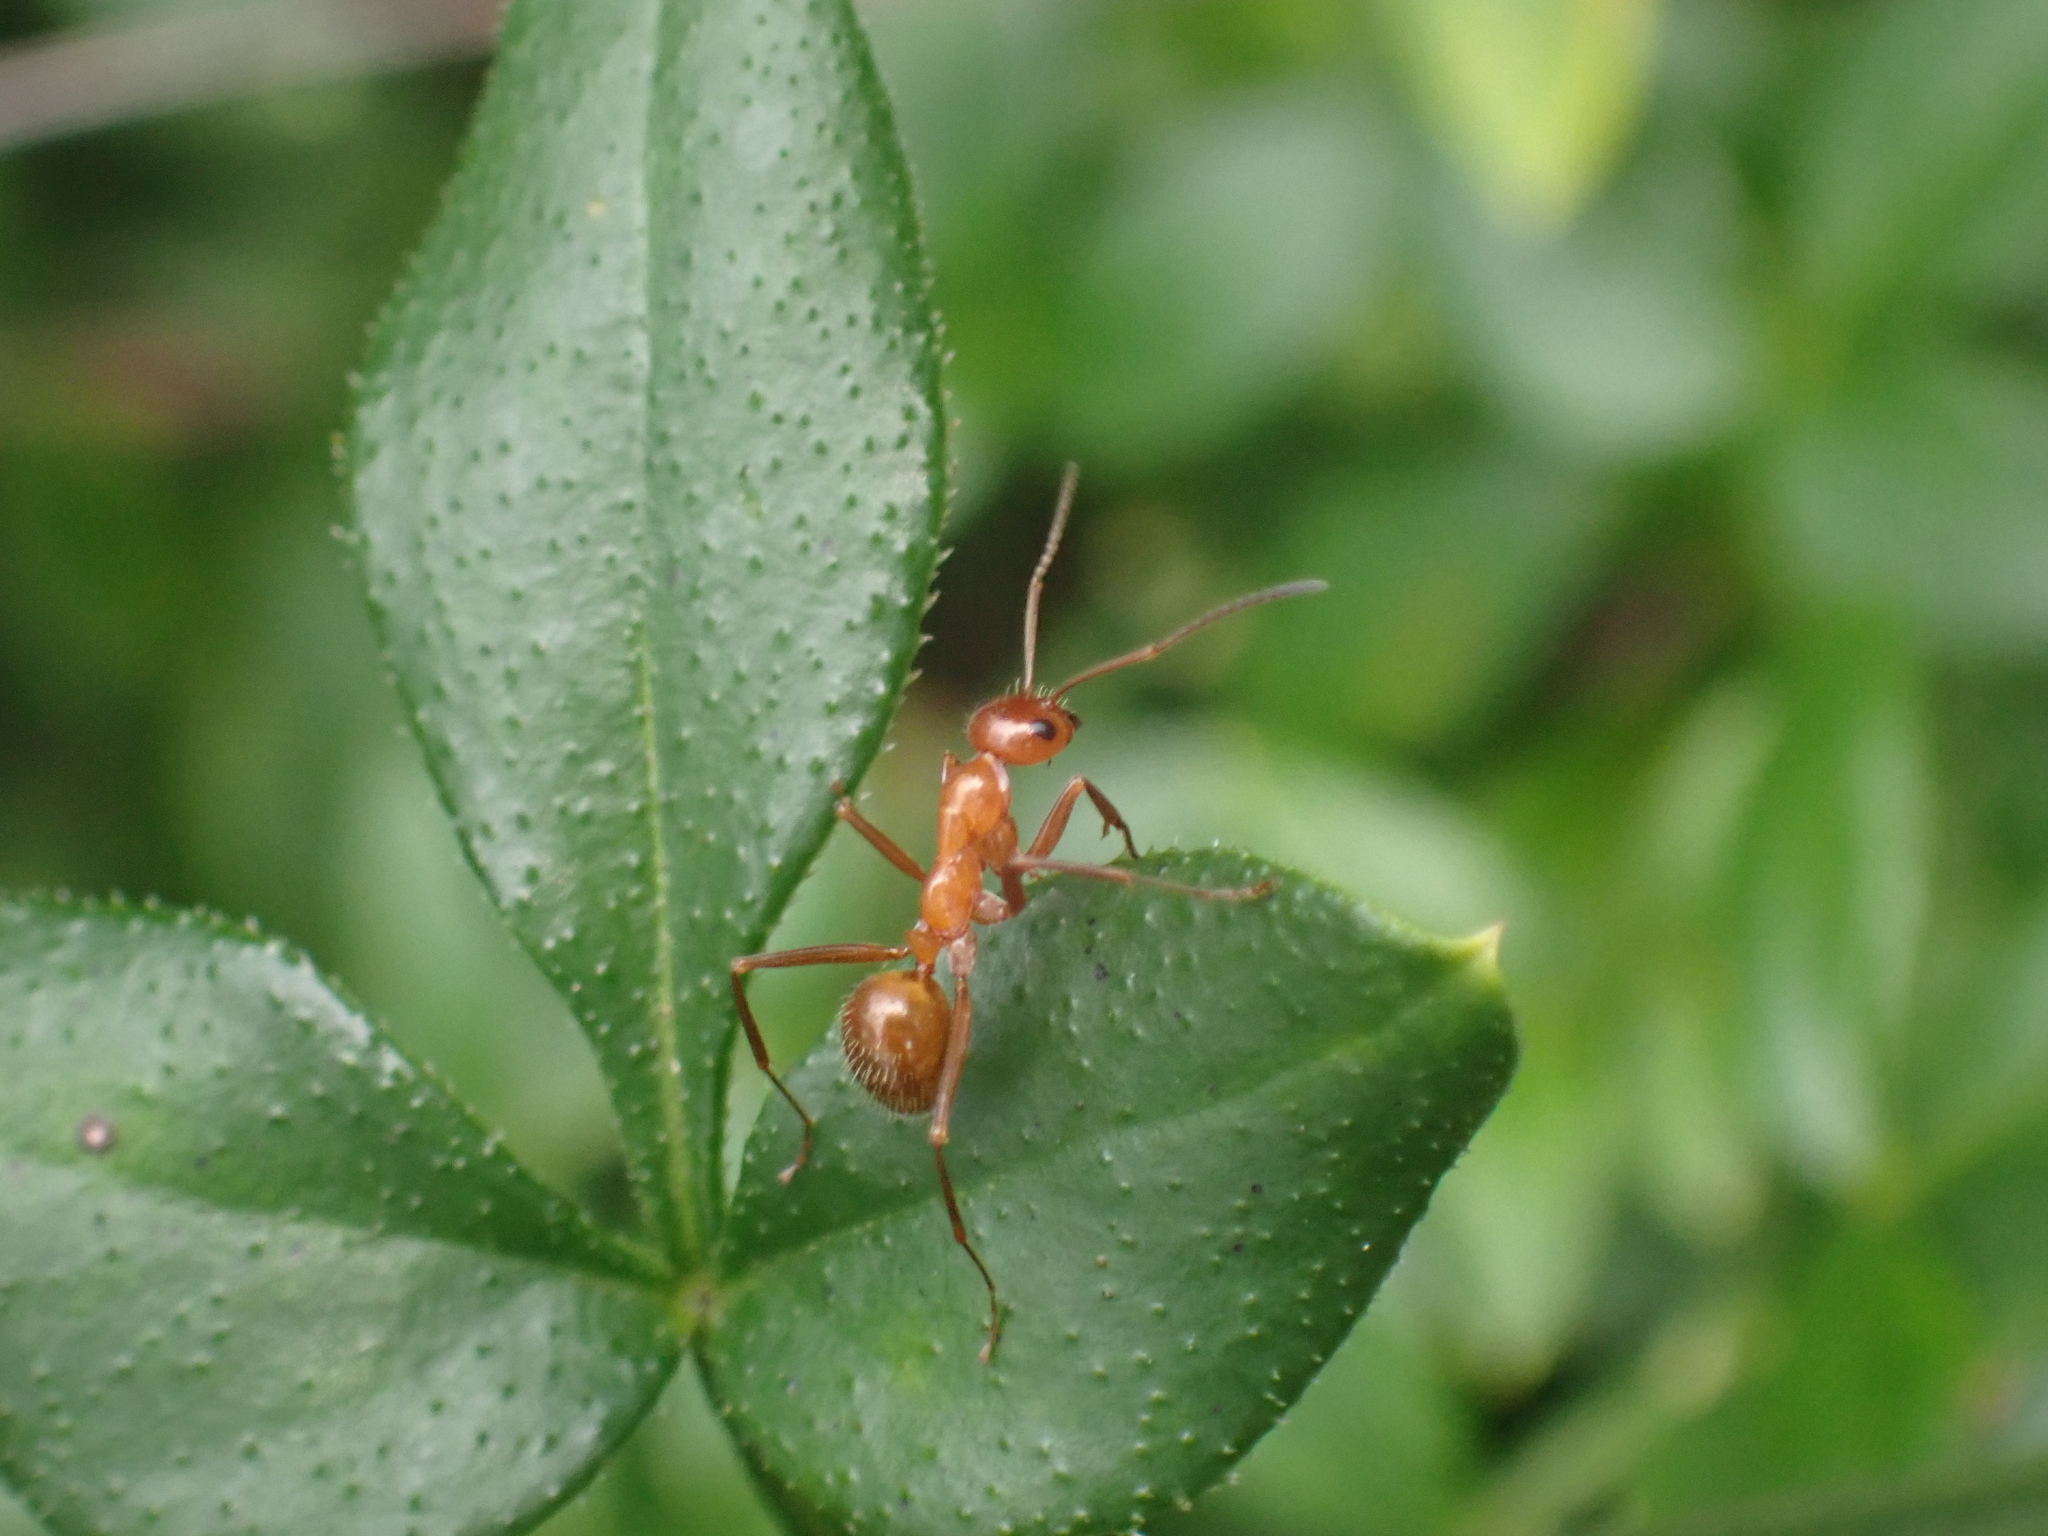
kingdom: Animalia
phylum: Arthropoda
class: Insecta
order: Hymenoptera
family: Formicidae
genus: Formica
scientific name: Formica pallidefulva
